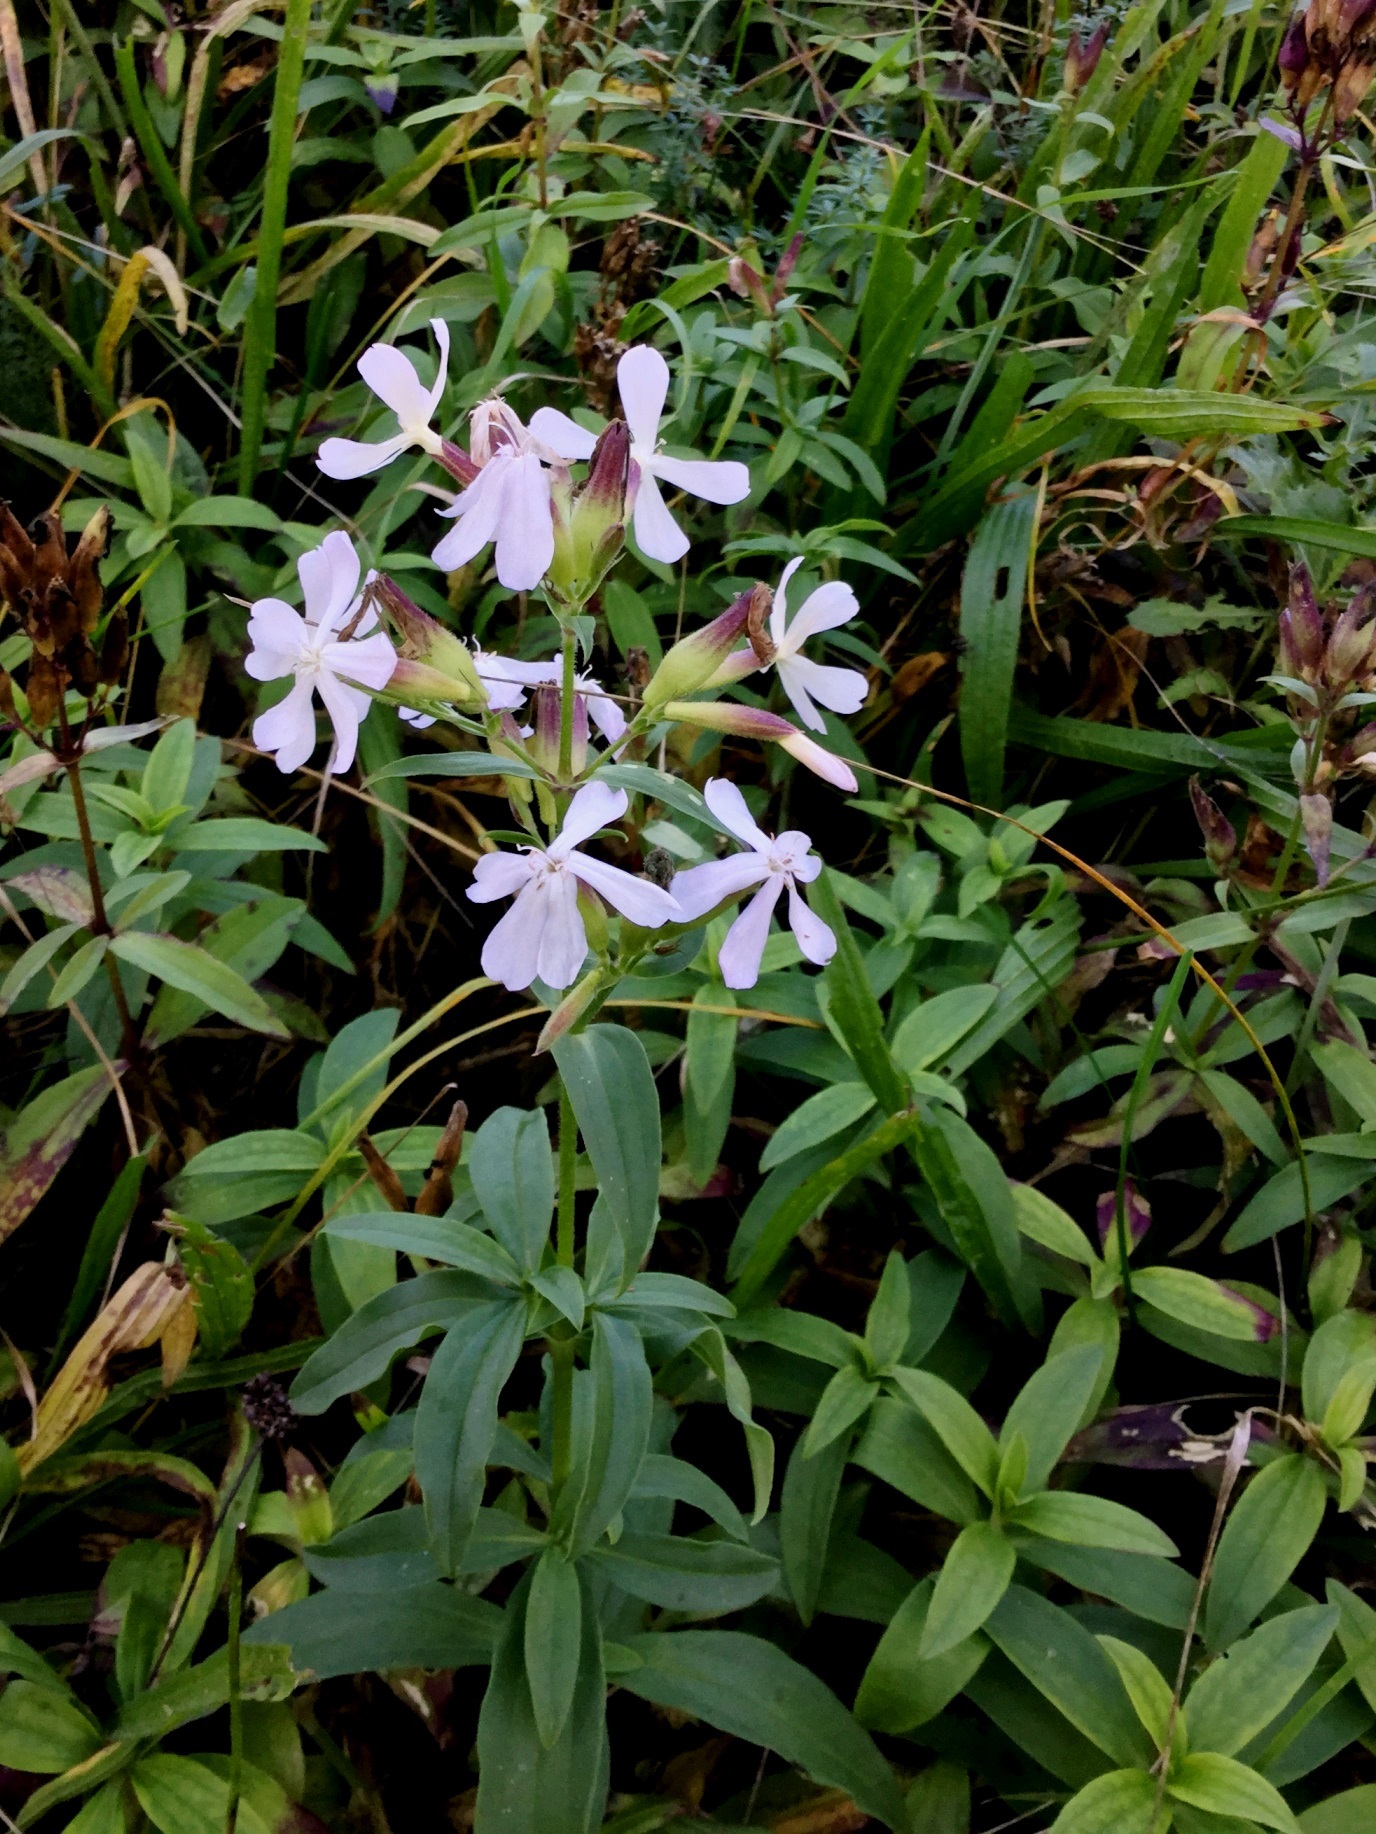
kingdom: Plantae
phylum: Tracheophyta
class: Magnoliopsida
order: Caryophyllales
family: Caryophyllaceae
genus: Saponaria
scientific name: Saponaria officinalis
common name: Soapwort
